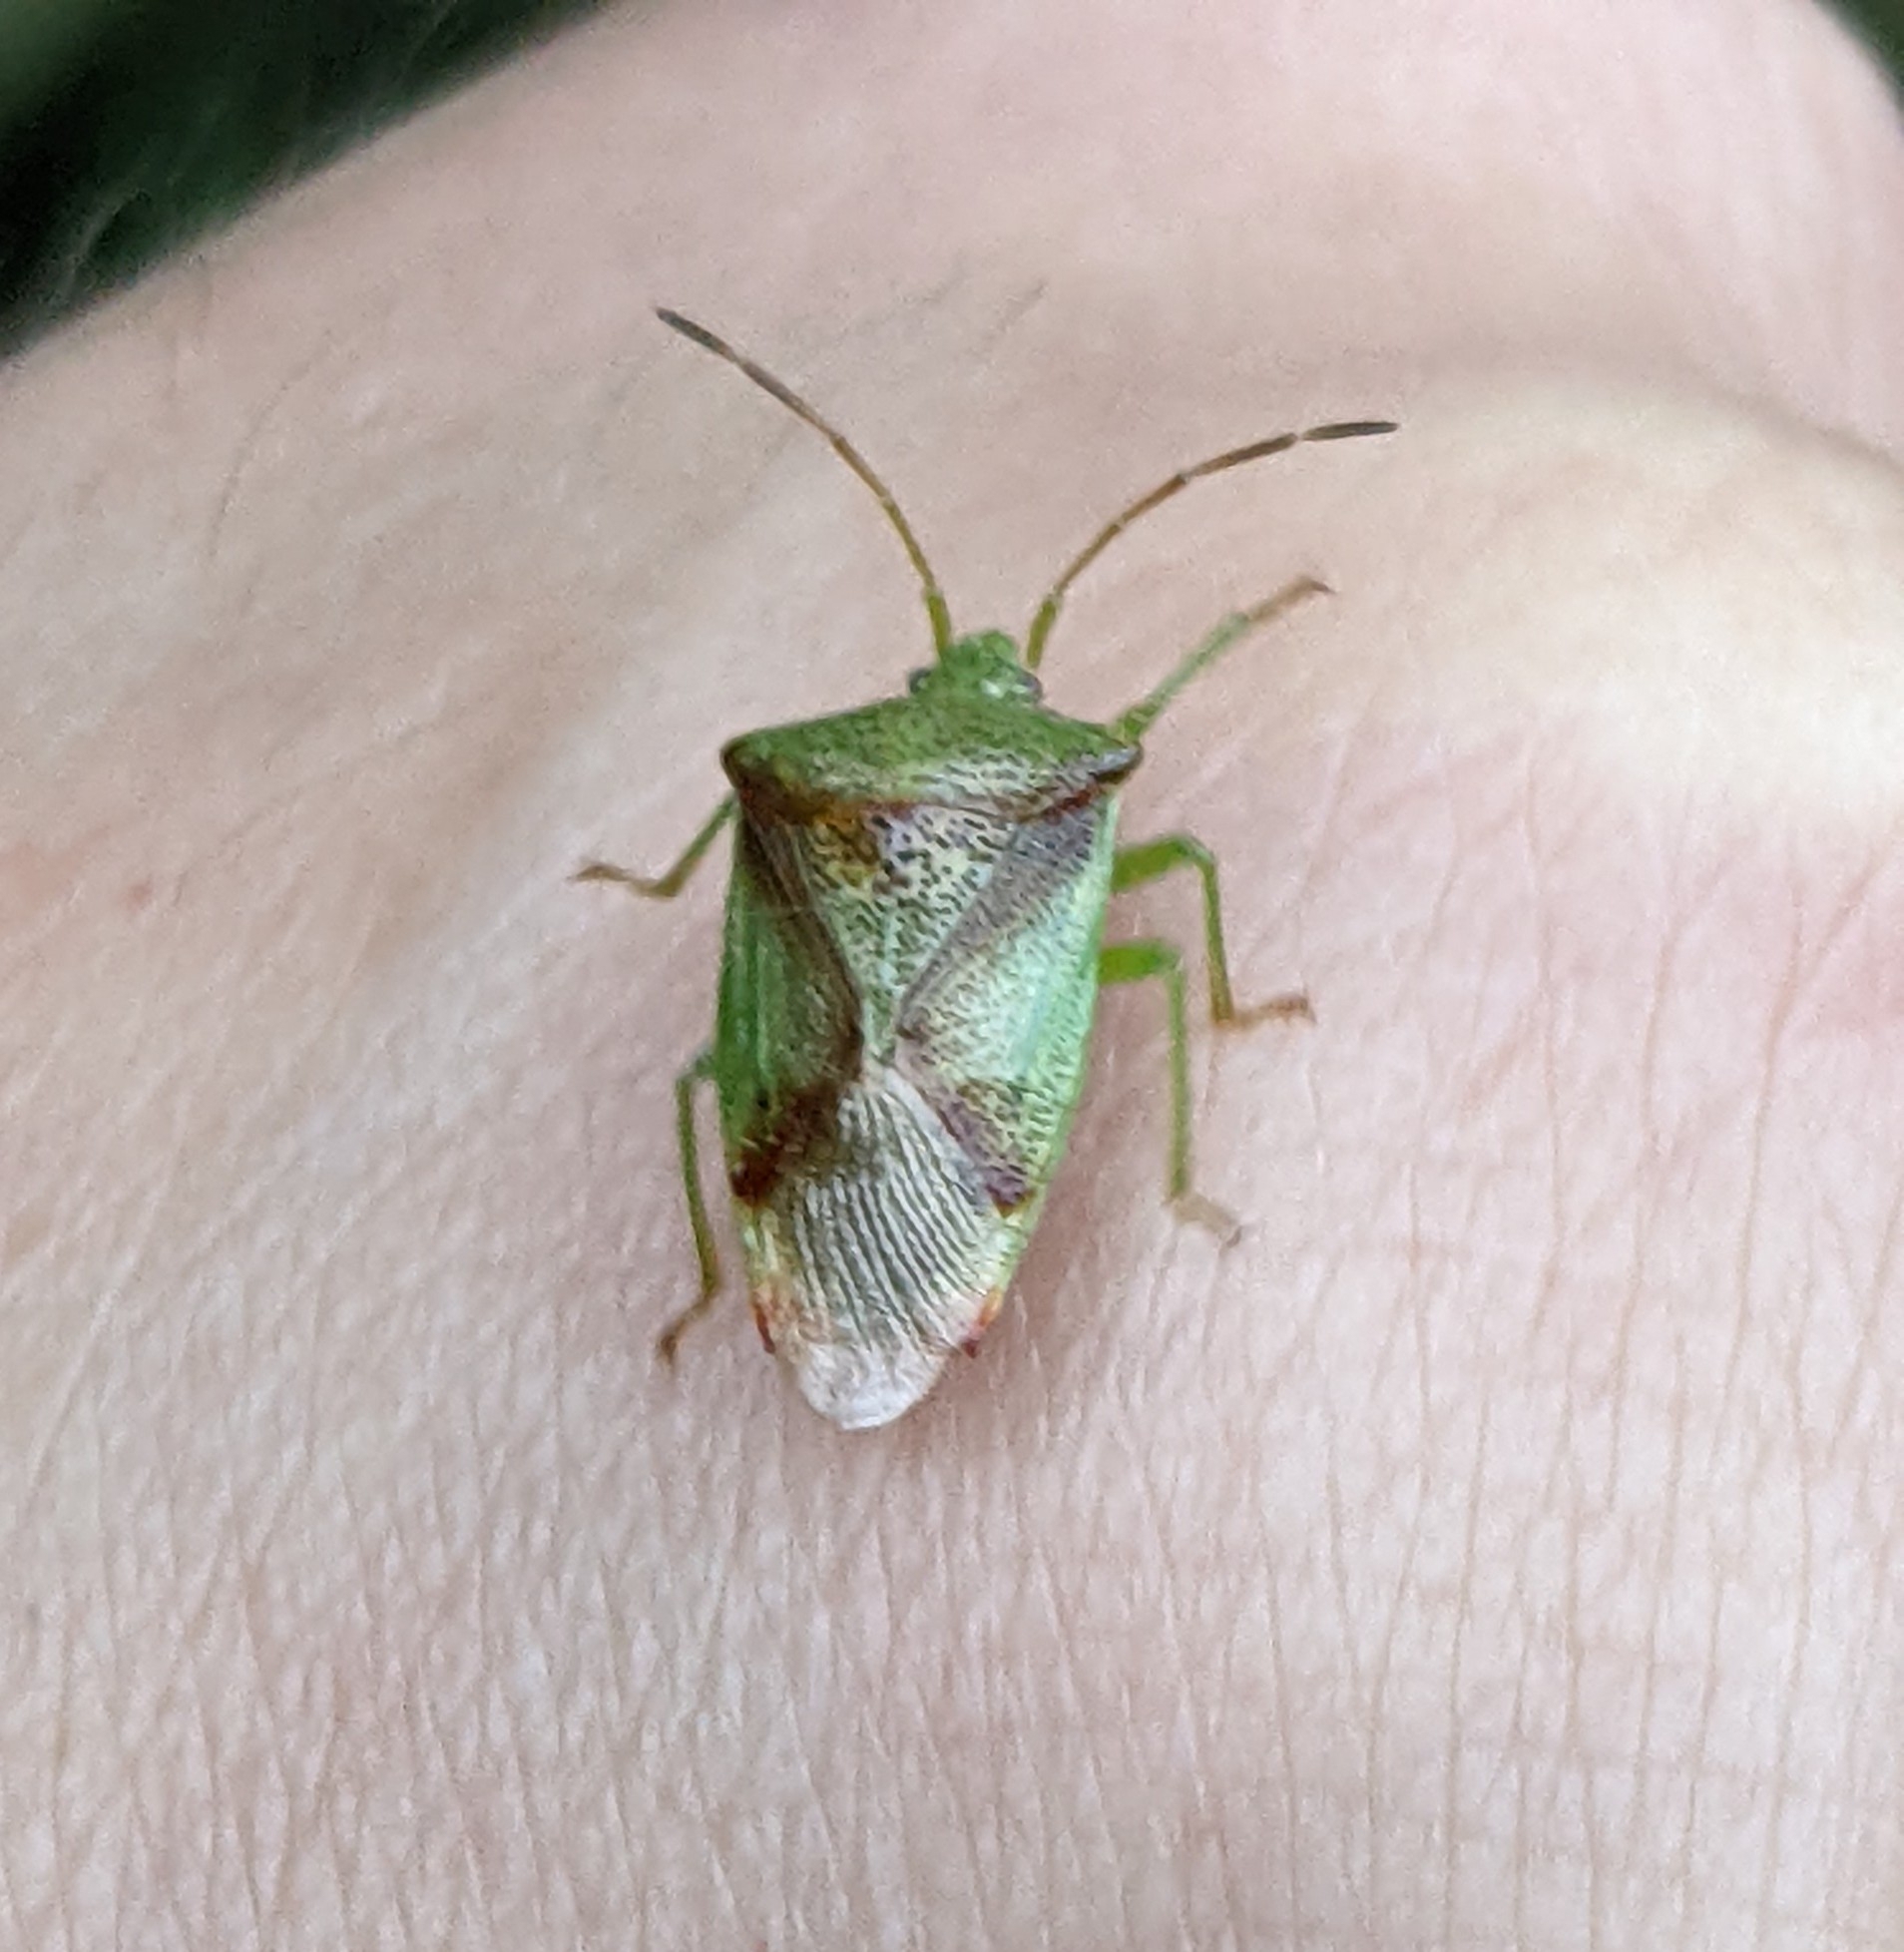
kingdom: Animalia
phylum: Arthropoda
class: Insecta
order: Hemiptera
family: Acanthosomatidae
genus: Elasmostethus
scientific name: Elasmostethus cruciatus
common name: Red-cross shield bug
